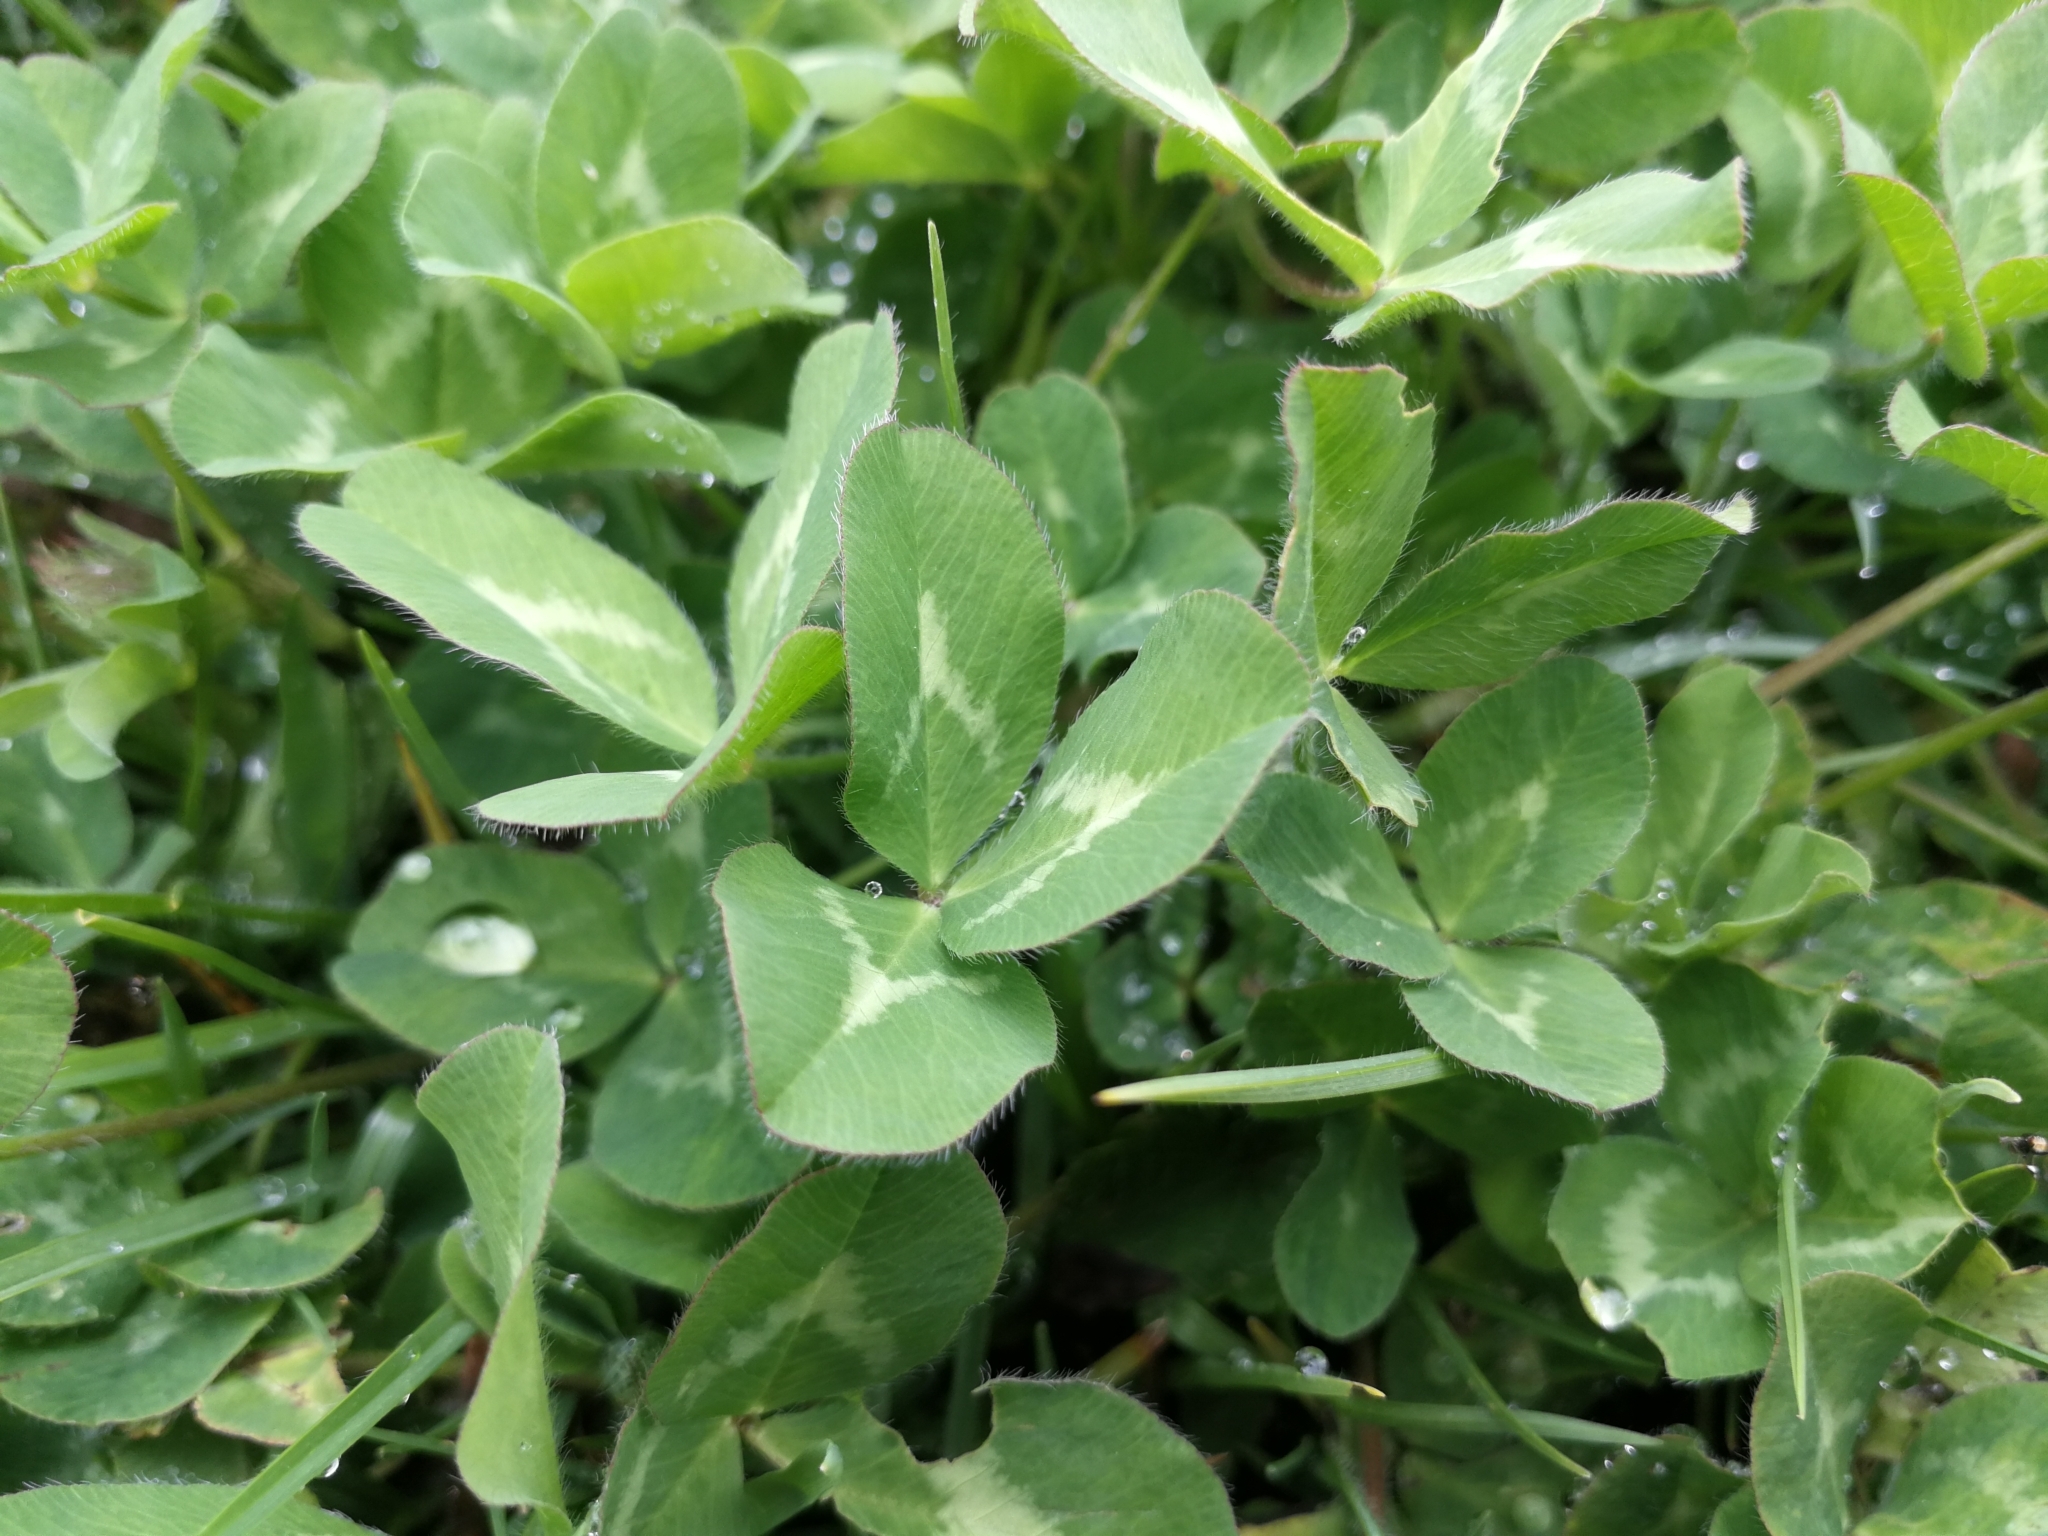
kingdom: Plantae
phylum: Tracheophyta
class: Magnoliopsida
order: Fabales
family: Fabaceae
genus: Trifolium
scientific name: Trifolium pratense
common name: Red clover
